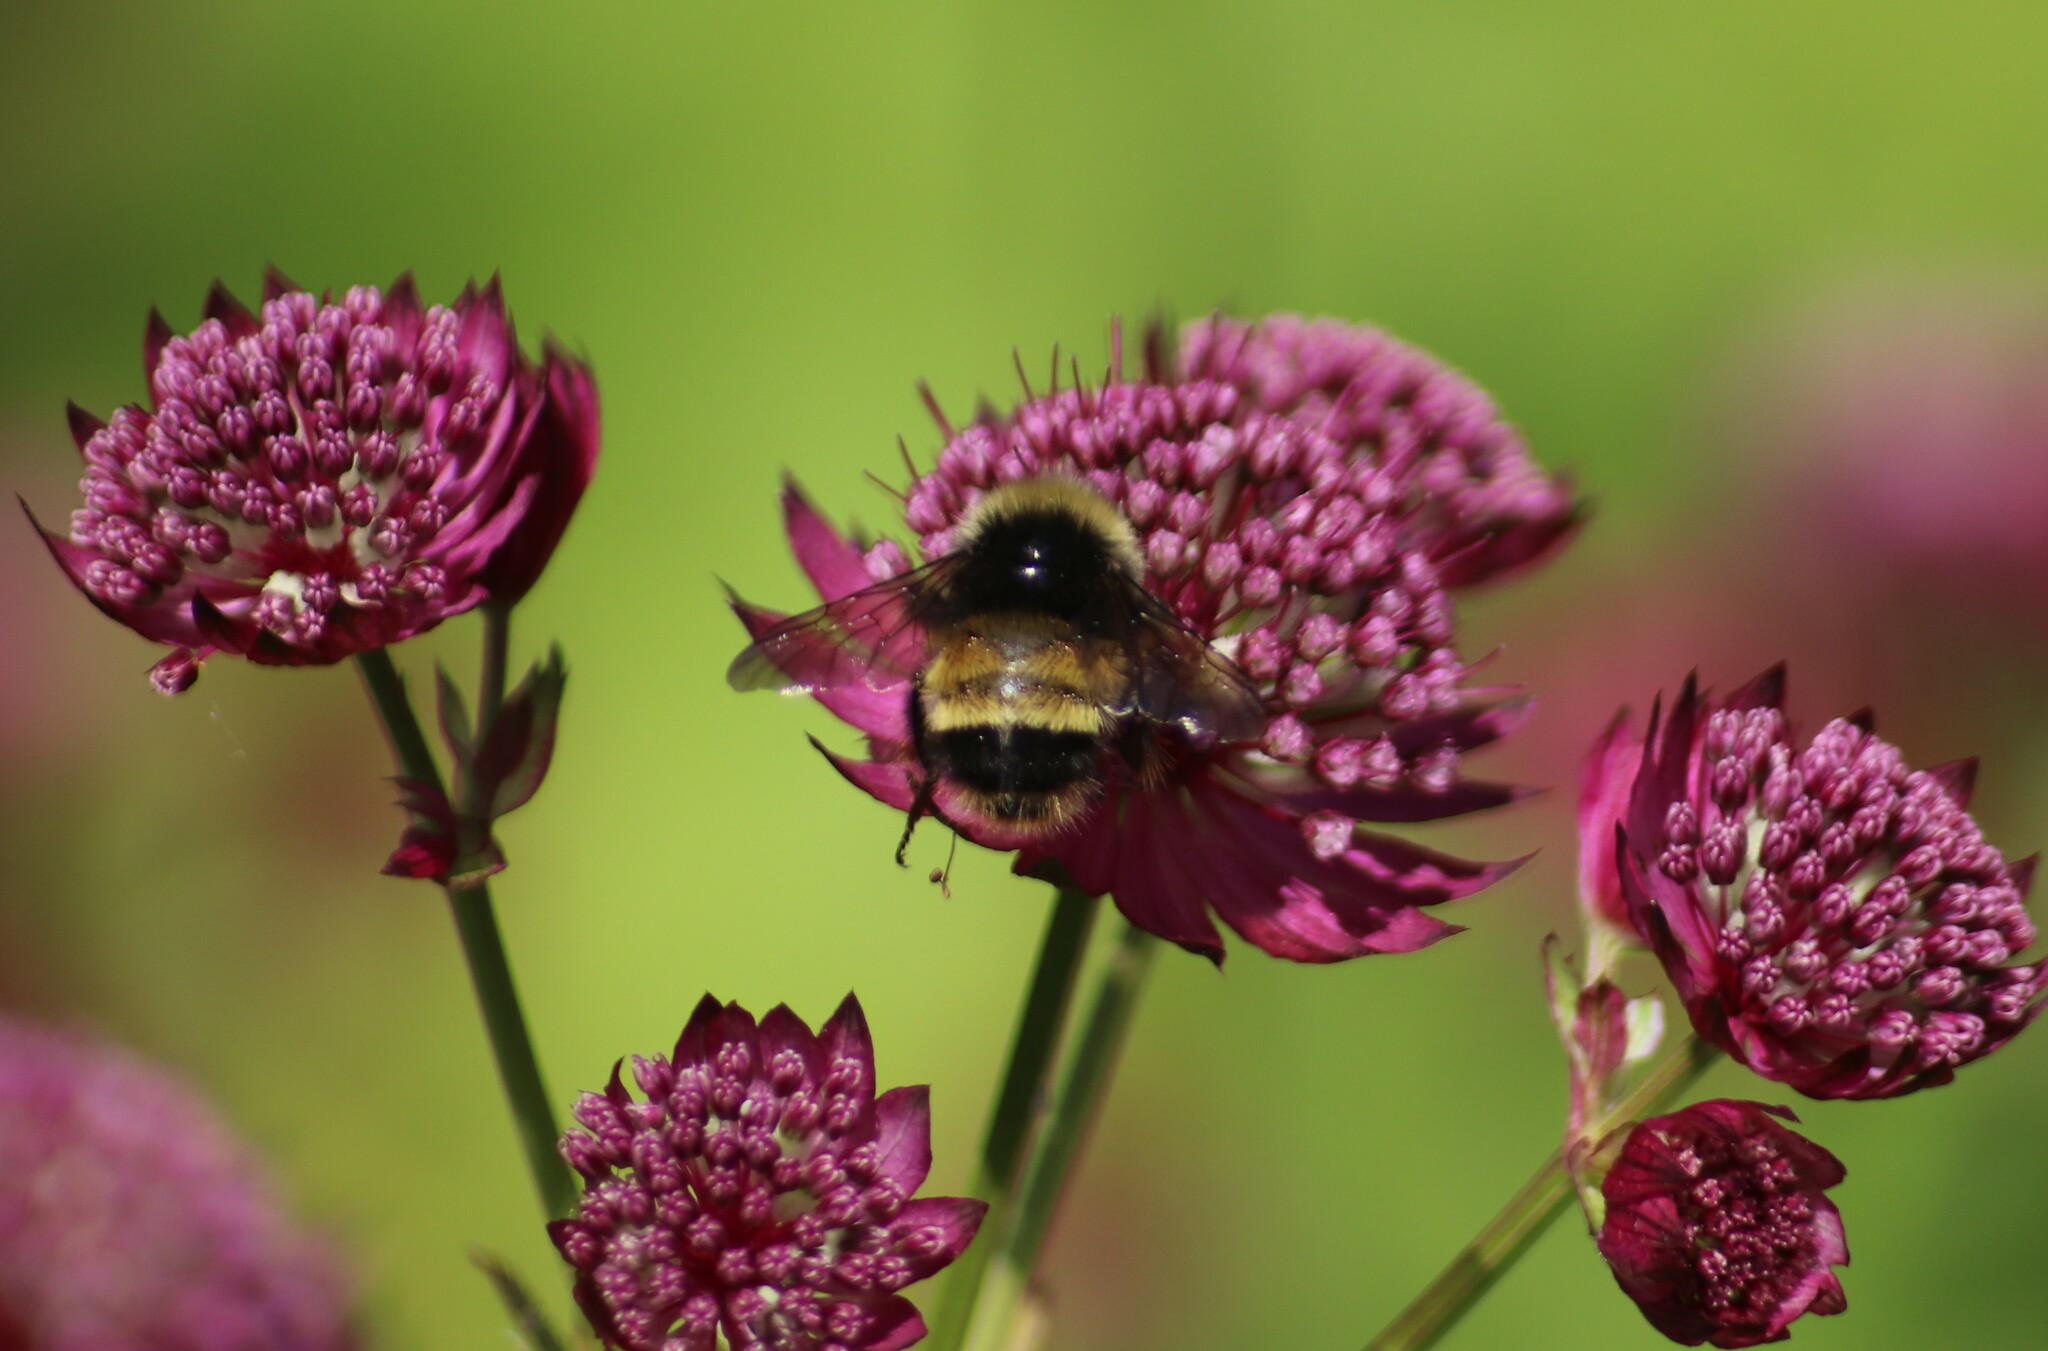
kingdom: Animalia
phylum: Arthropoda
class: Insecta
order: Hymenoptera
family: Apidae
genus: Bombus
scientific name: Bombus terricola
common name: Yellow-banded bumble bee
